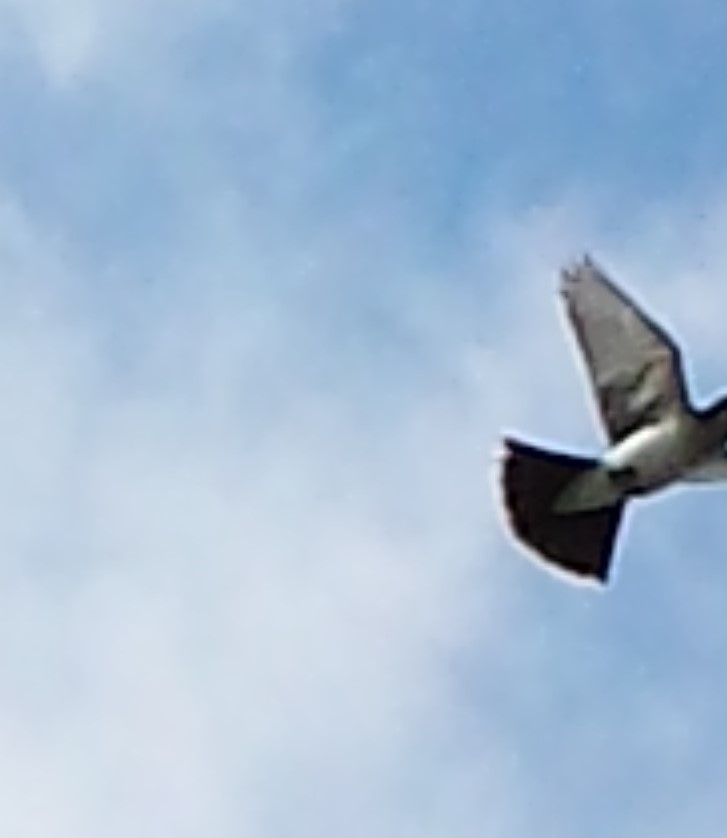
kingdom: Animalia
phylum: Chordata
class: Aves
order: Passeriformes
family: Tyrannidae
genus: Tyrannus
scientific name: Tyrannus tyrannus
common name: Eastern kingbird
